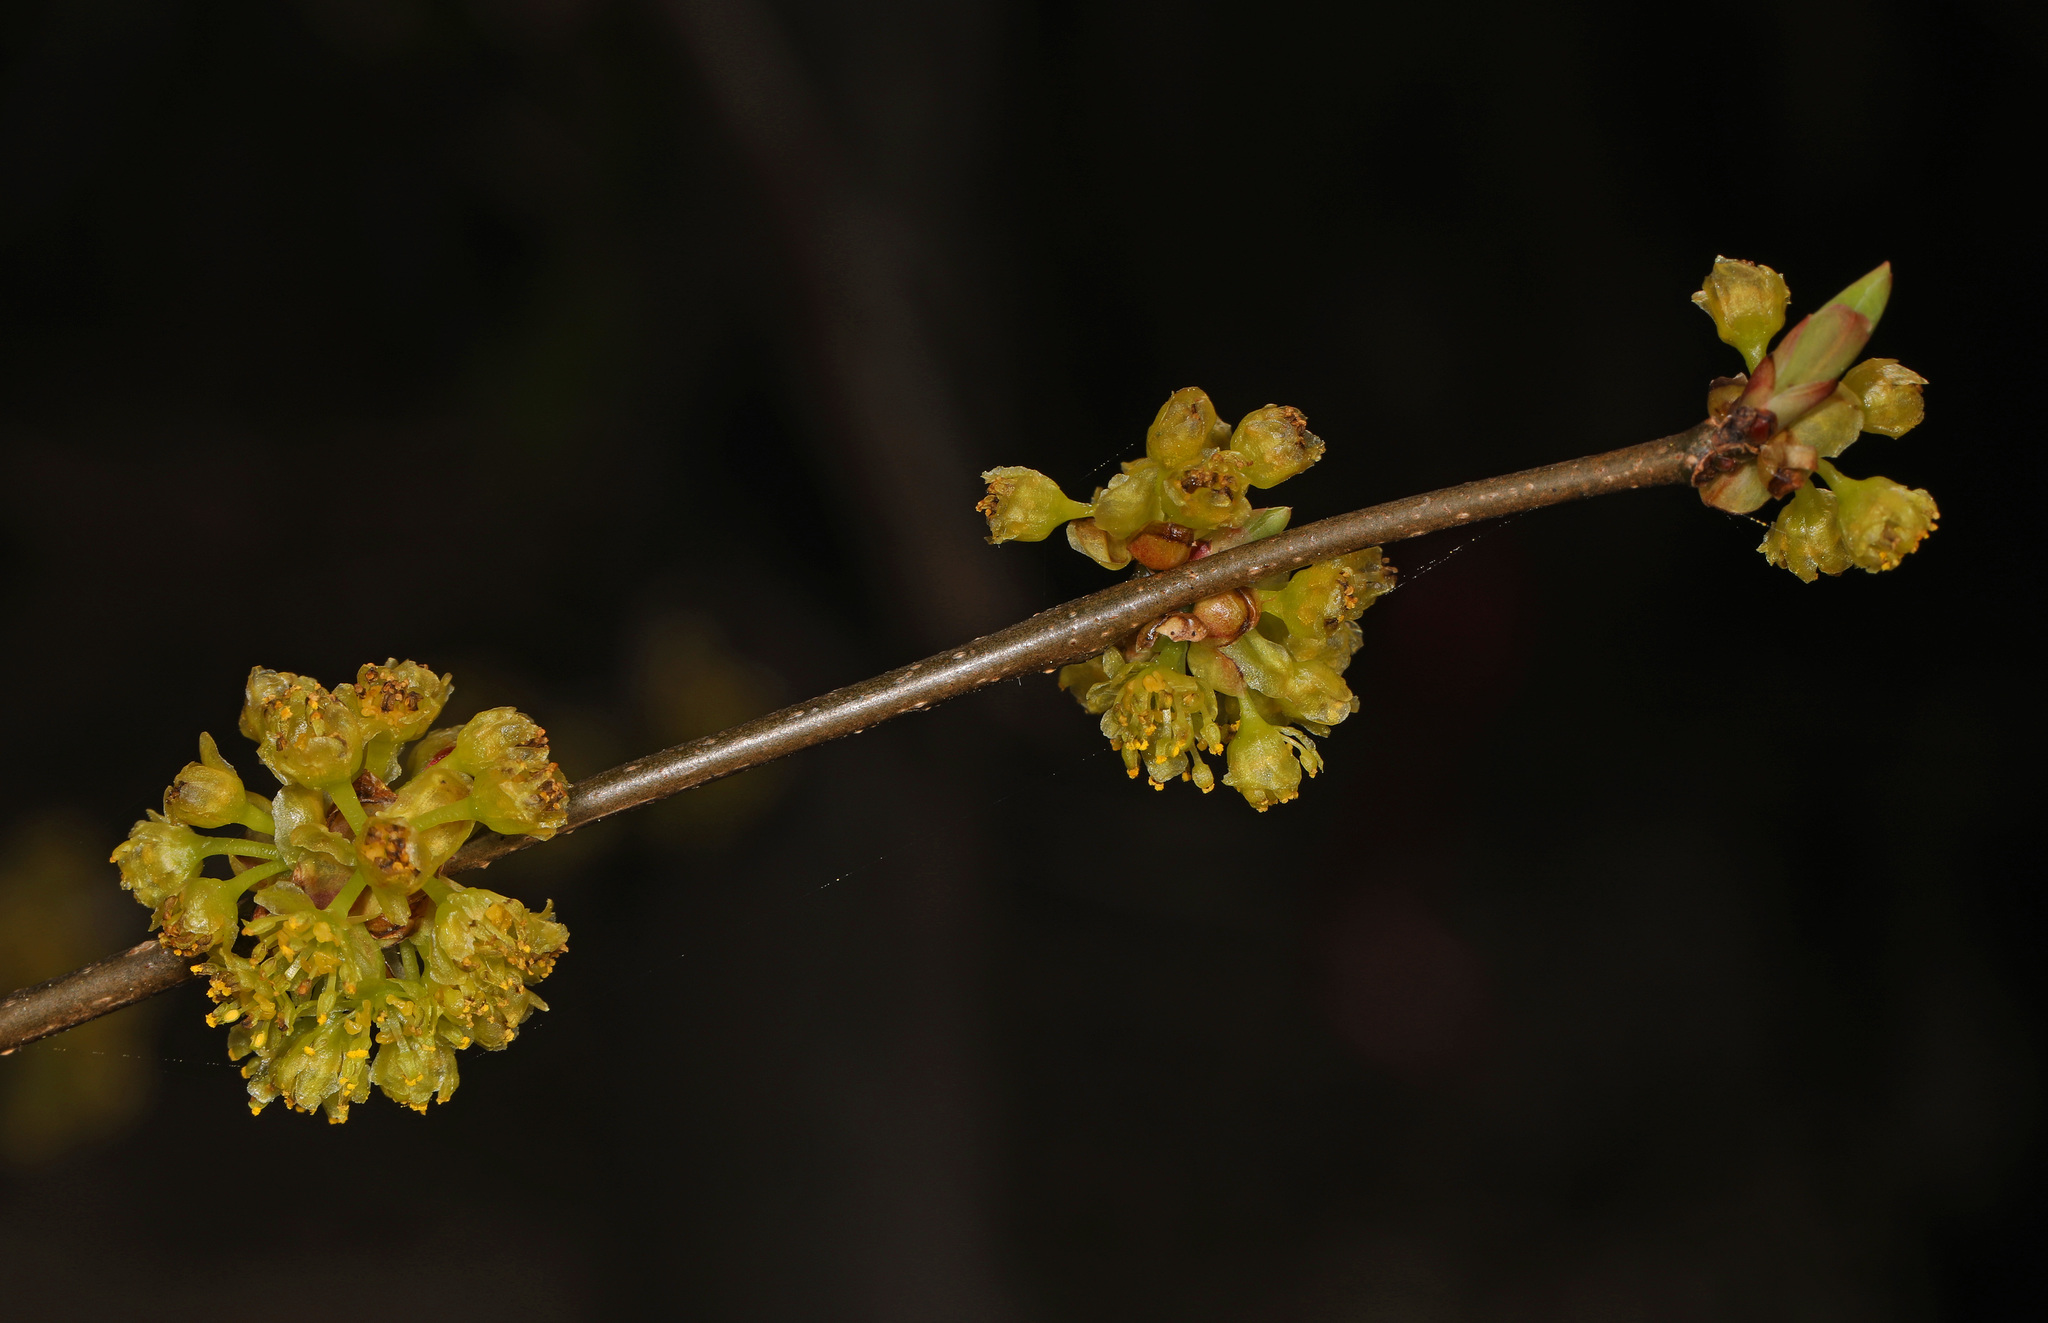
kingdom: Plantae
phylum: Tracheophyta
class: Magnoliopsida
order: Laurales
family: Lauraceae
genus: Lindera
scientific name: Lindera benzoin
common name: Spicebush
